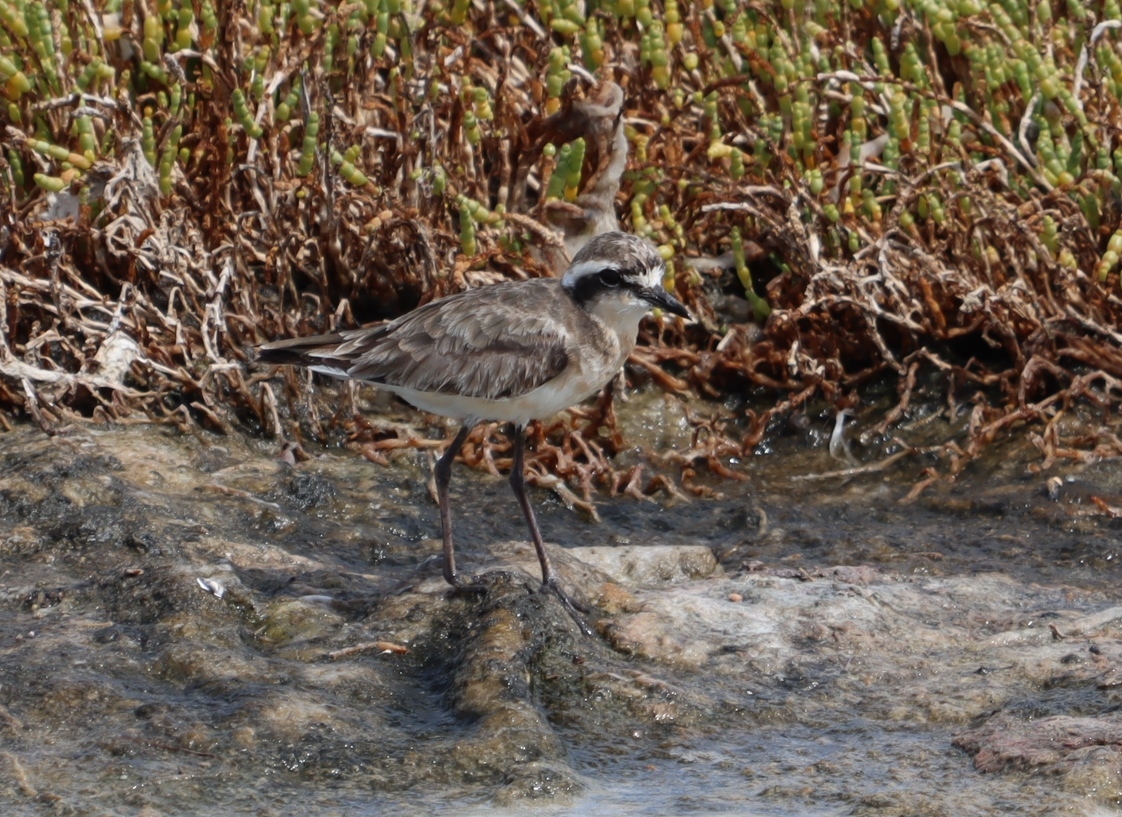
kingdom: Animalia
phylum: Chordata
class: Aves
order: Charadriiformes
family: Charadriidae
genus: Anarhynchus
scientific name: Anarhynchus
